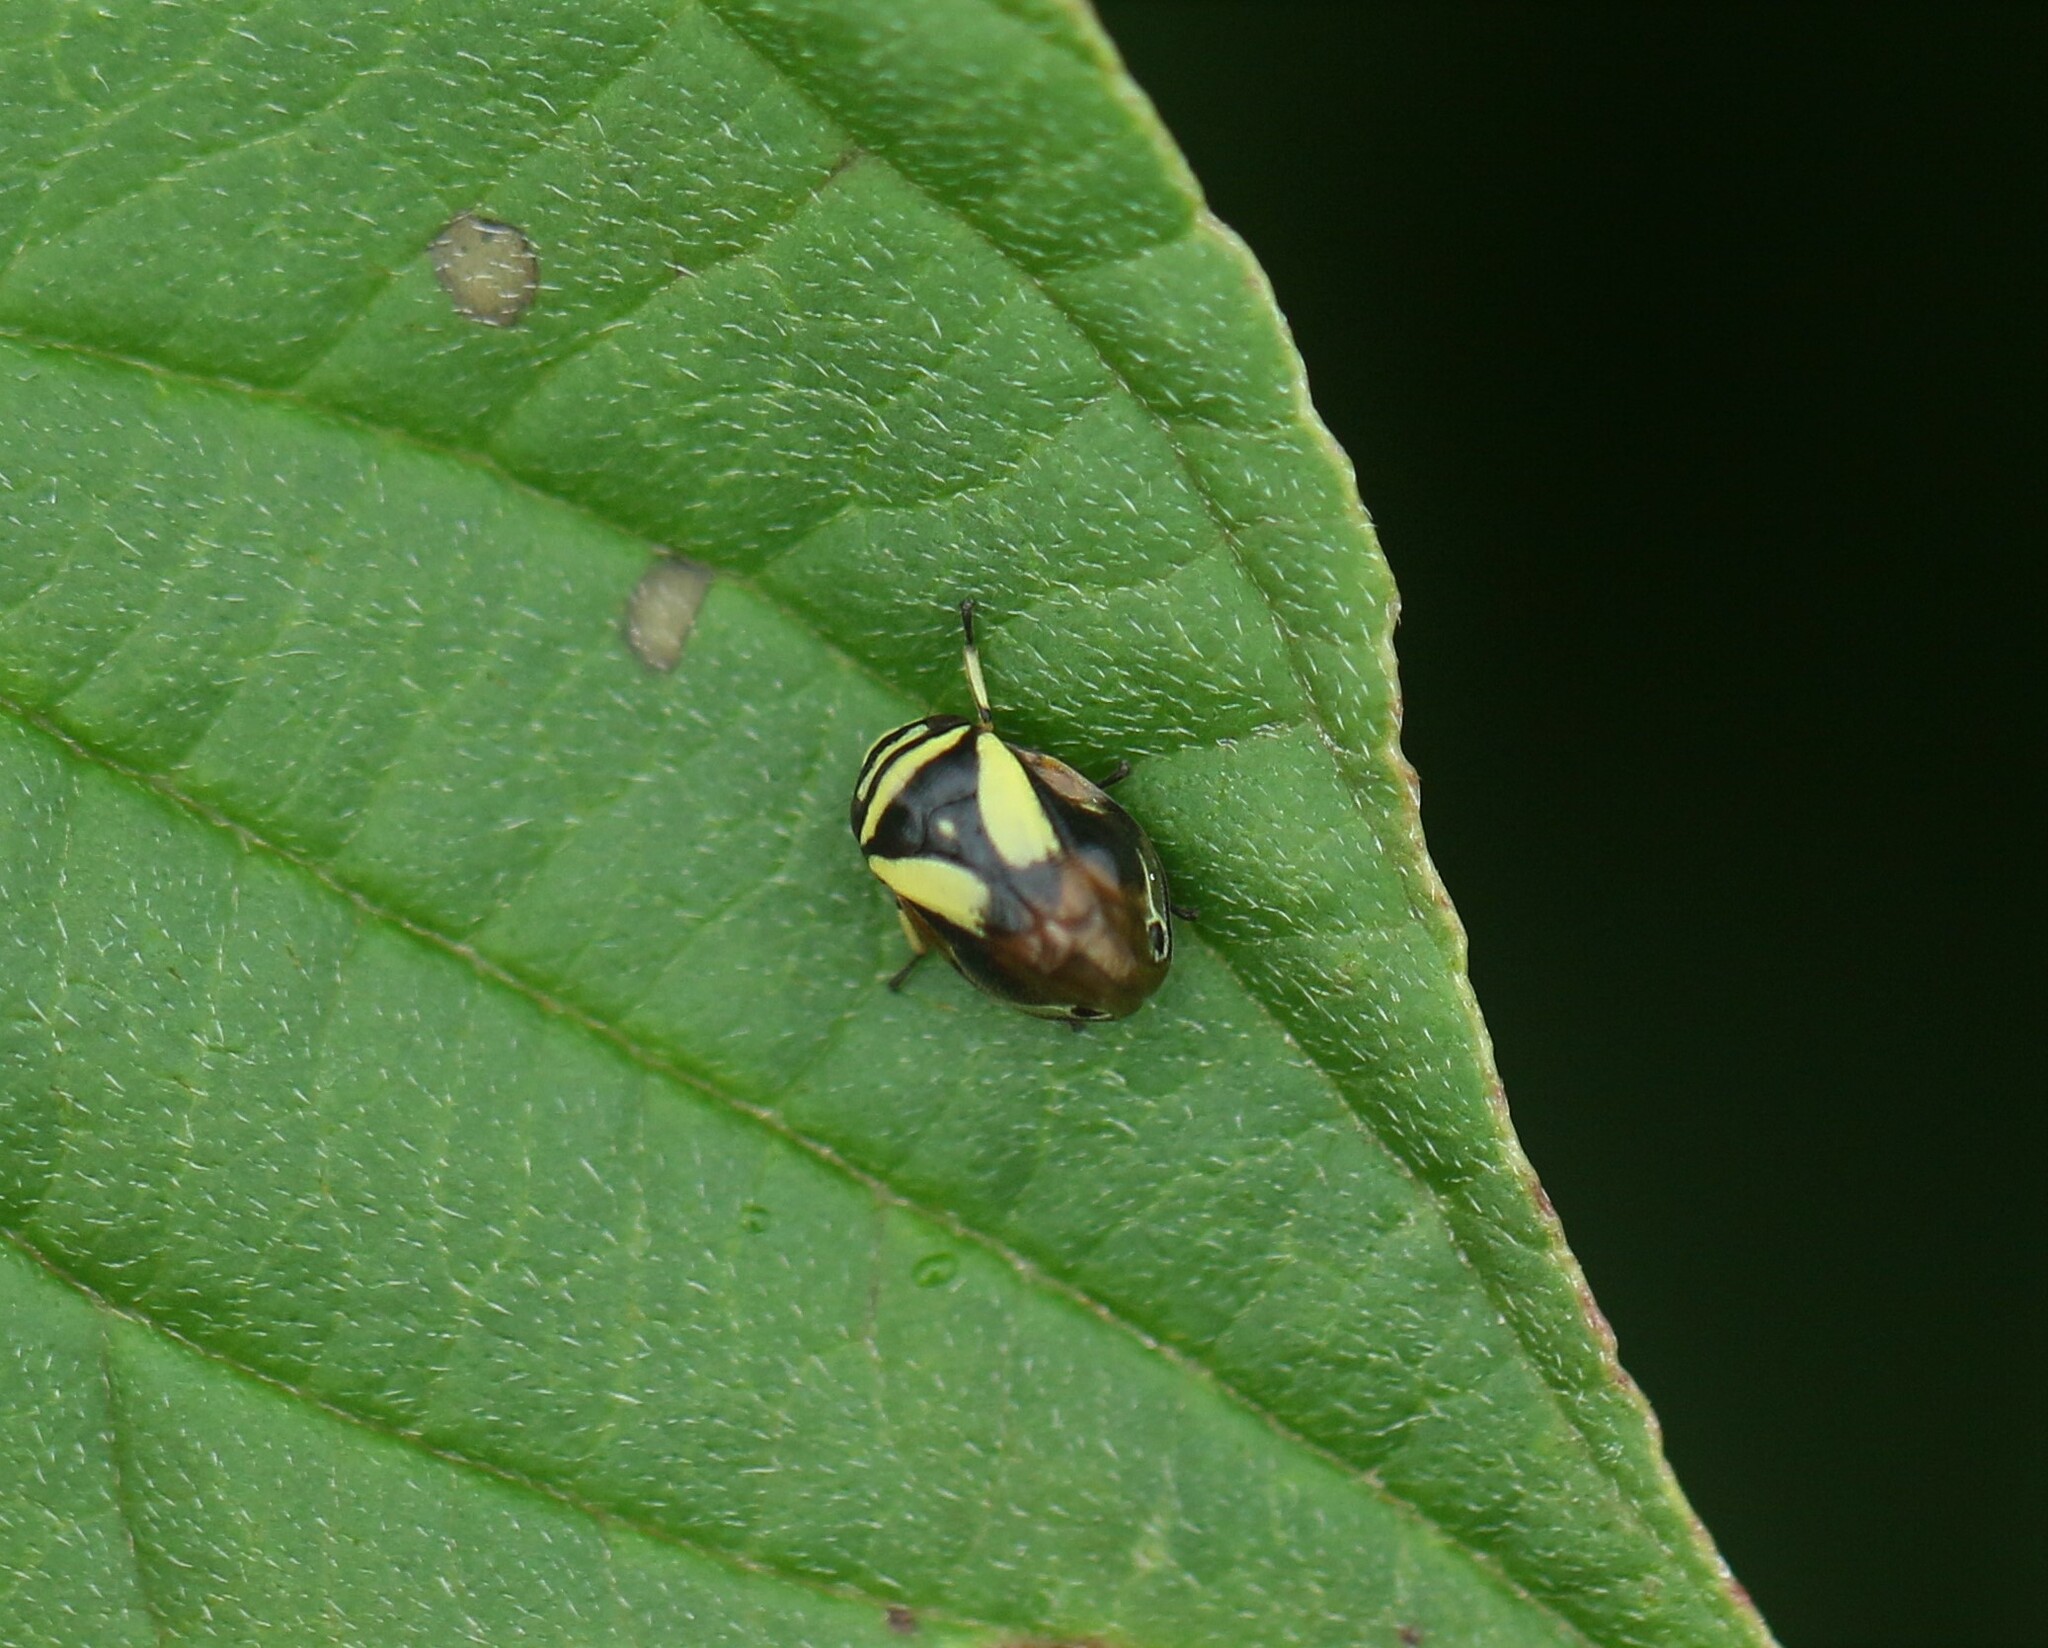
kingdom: Animalia
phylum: Arthropoda
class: Insecta
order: Hemiptera
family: Clastopteridae
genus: Clastoptera
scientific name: Clastoptera proteus
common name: Dogwood spittlebug
